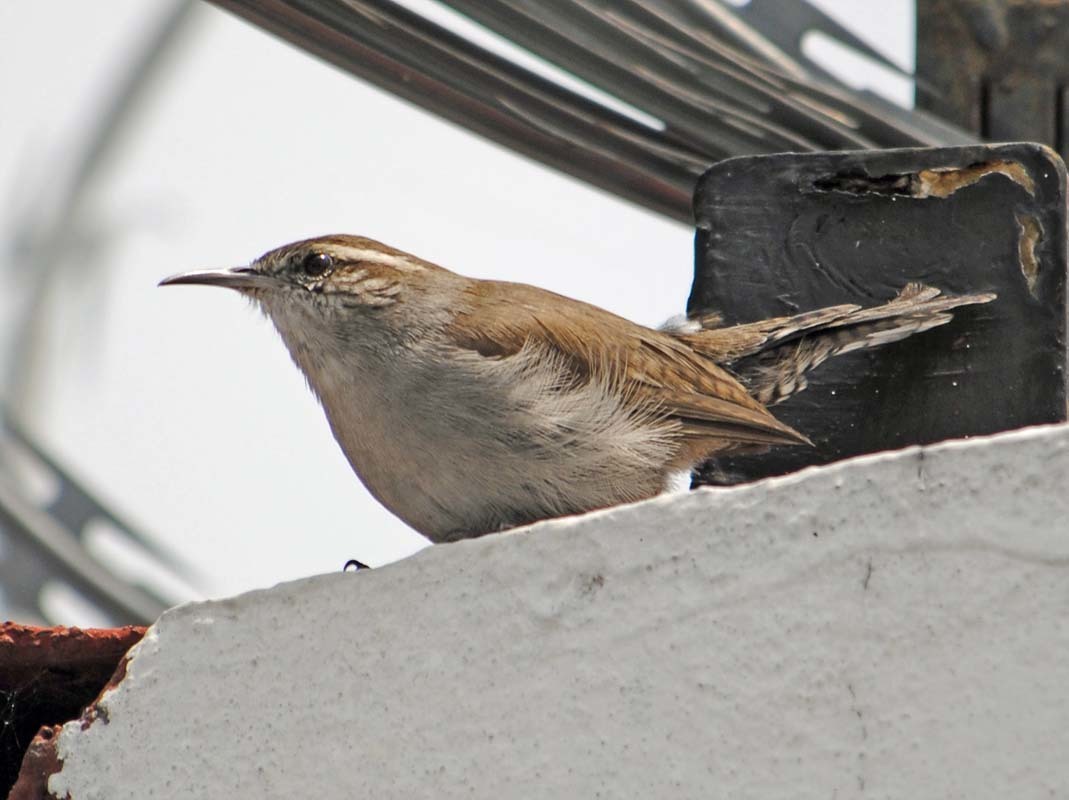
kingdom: Animalia
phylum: Chordata
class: Aves
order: Passeriformes
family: Troglodytidae
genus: Thryomanes
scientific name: Thryomanes bewickii
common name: Bewick's wren
